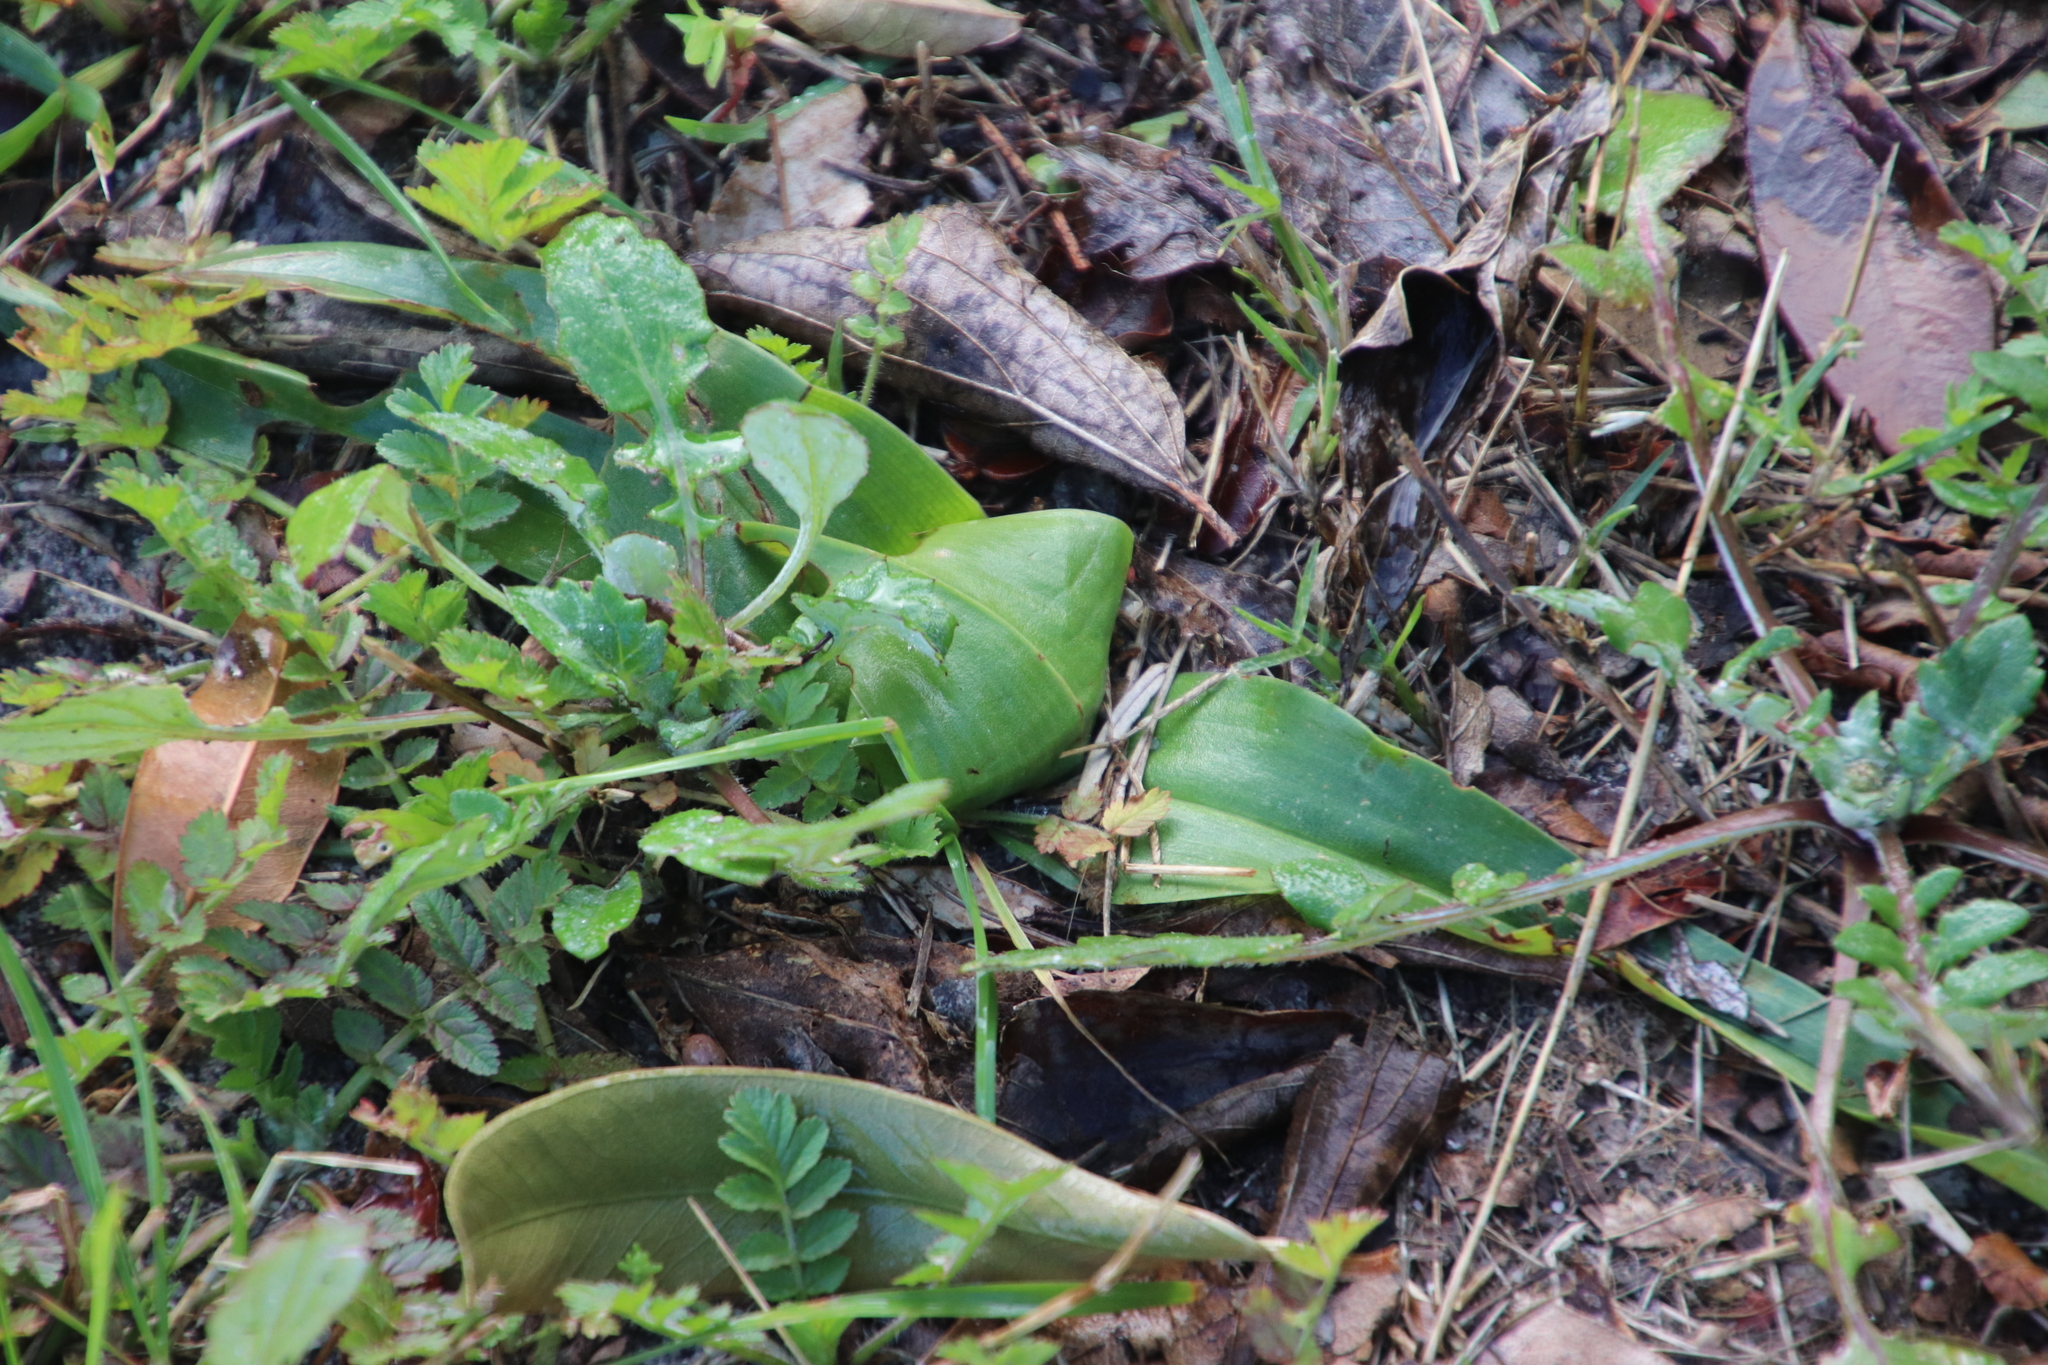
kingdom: Plantae
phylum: Tracheophyta
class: Liliopsida
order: Liliales
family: Colchicaceae
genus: Colchicum
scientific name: Colchicum eucomoides
